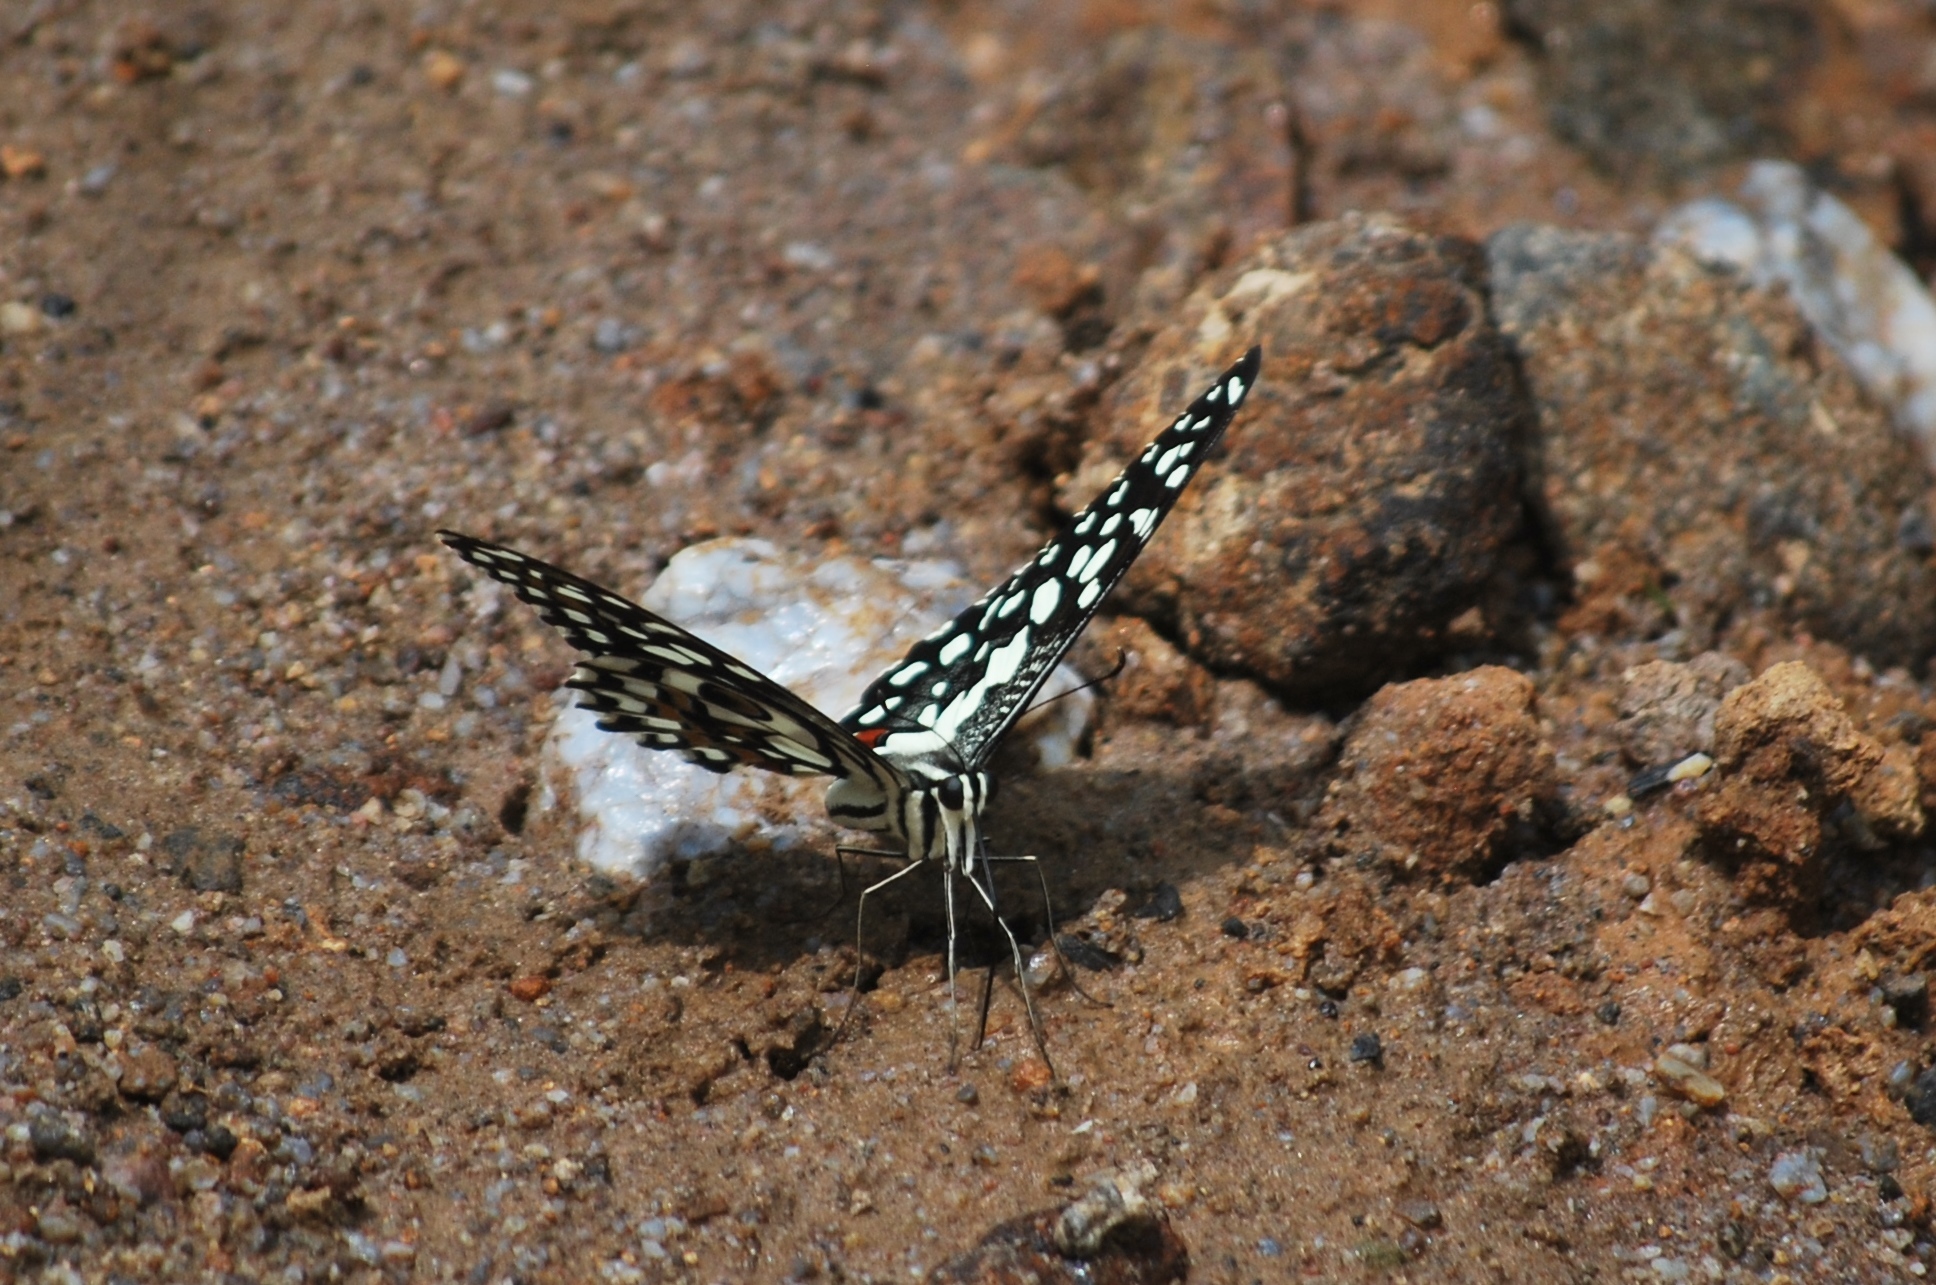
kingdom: Animalia
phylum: Arthropoda
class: Insecta
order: Lepidoptera
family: Papilionidae
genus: Papilio
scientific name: Papilio demoleus
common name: Lime butterfly
